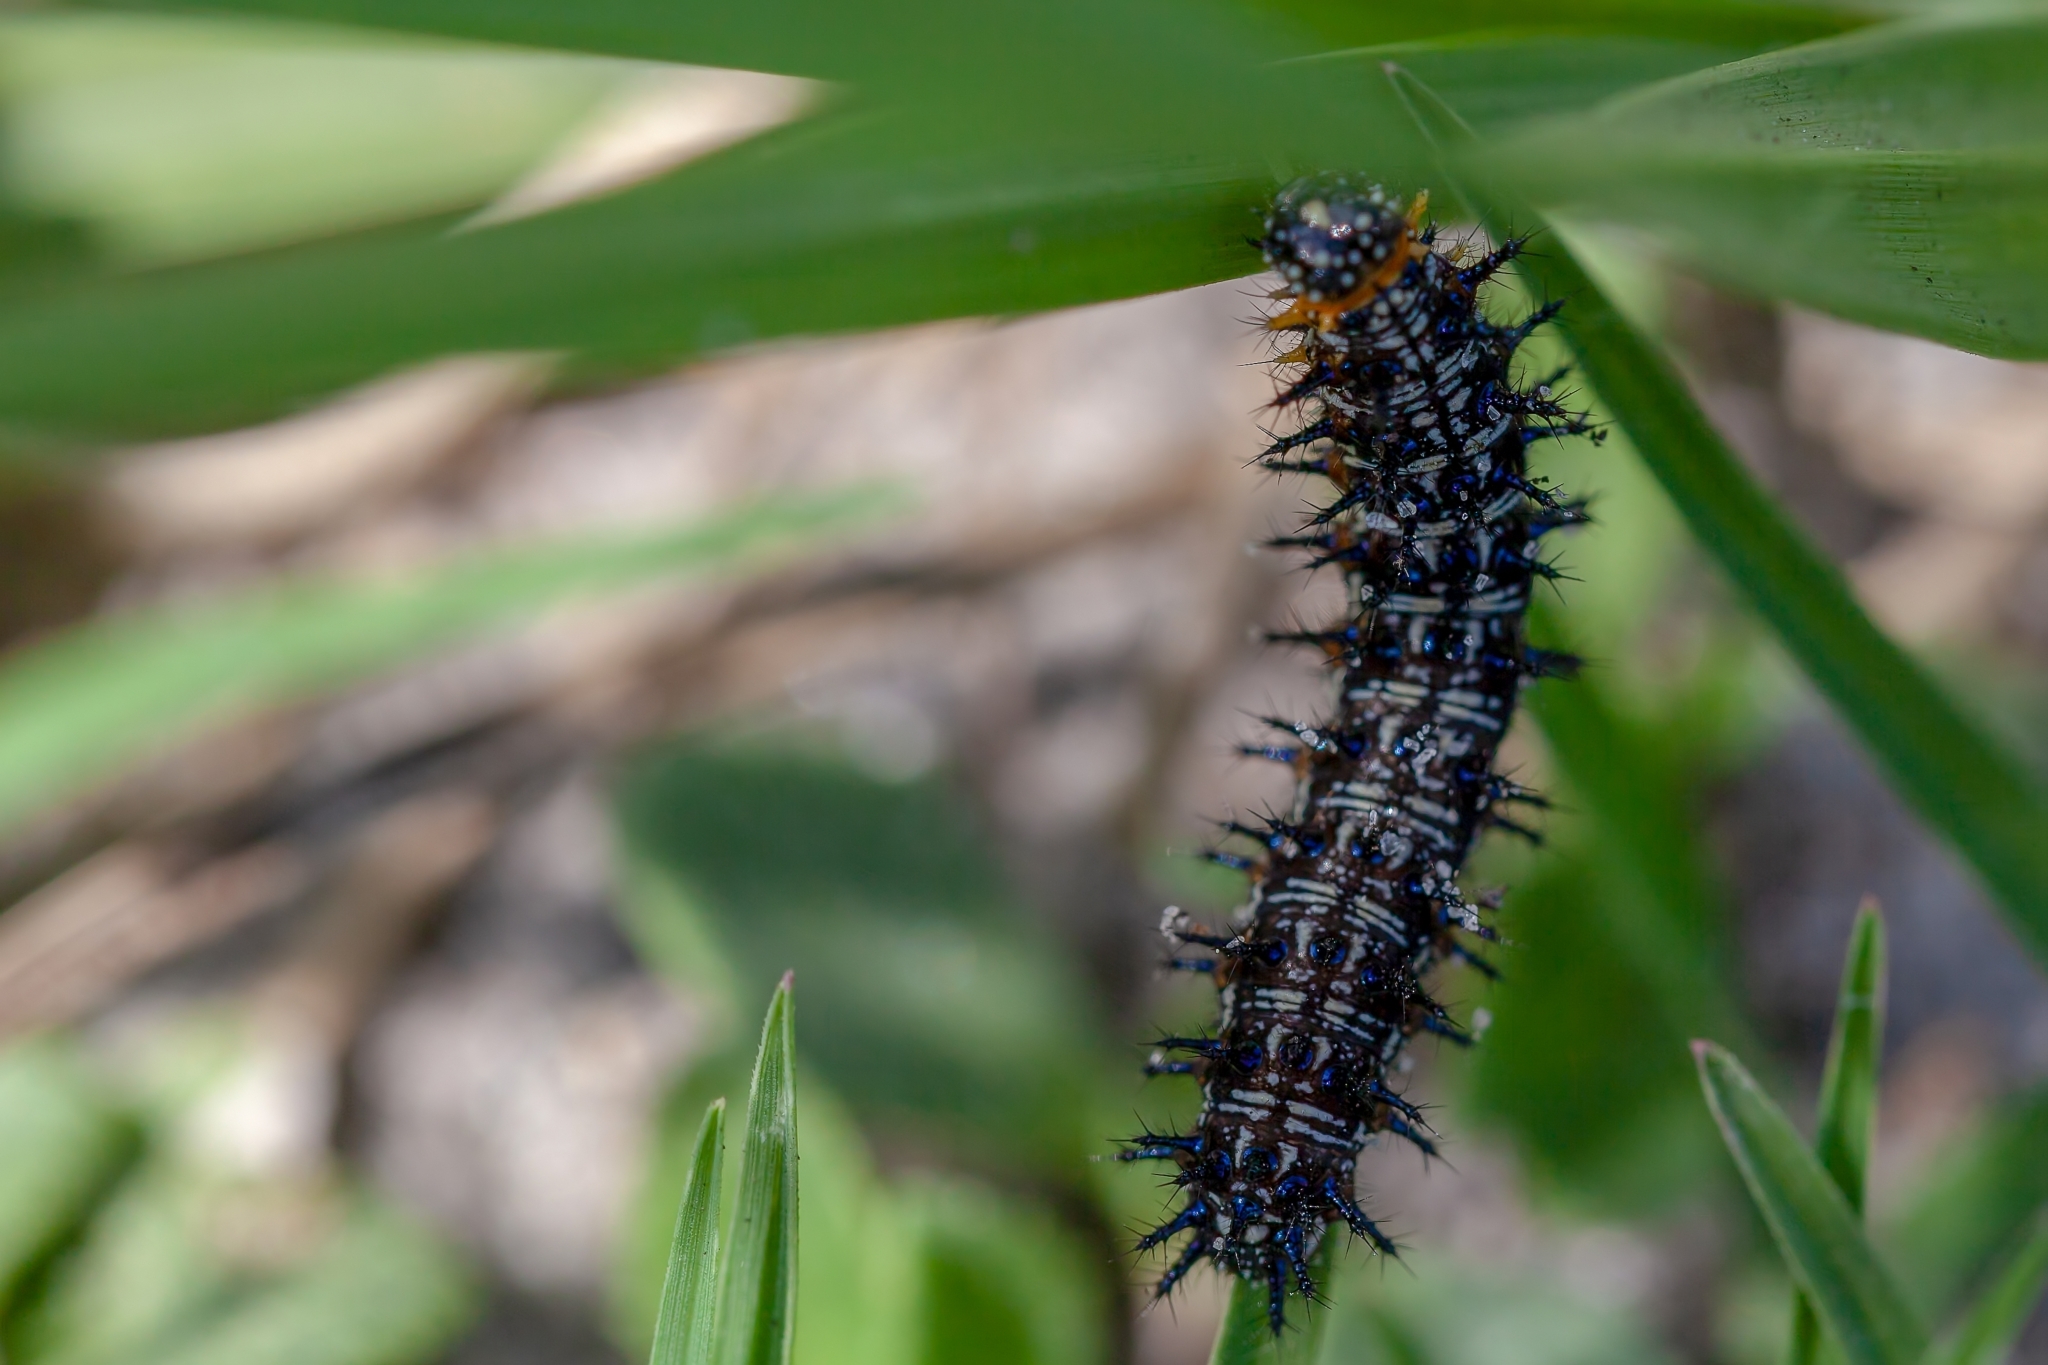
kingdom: Animalia
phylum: Arthropoda
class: Insecta
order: Lepidoptera
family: Nymphalidae
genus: Junonia
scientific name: Junonia coenia
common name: Common buckeye
